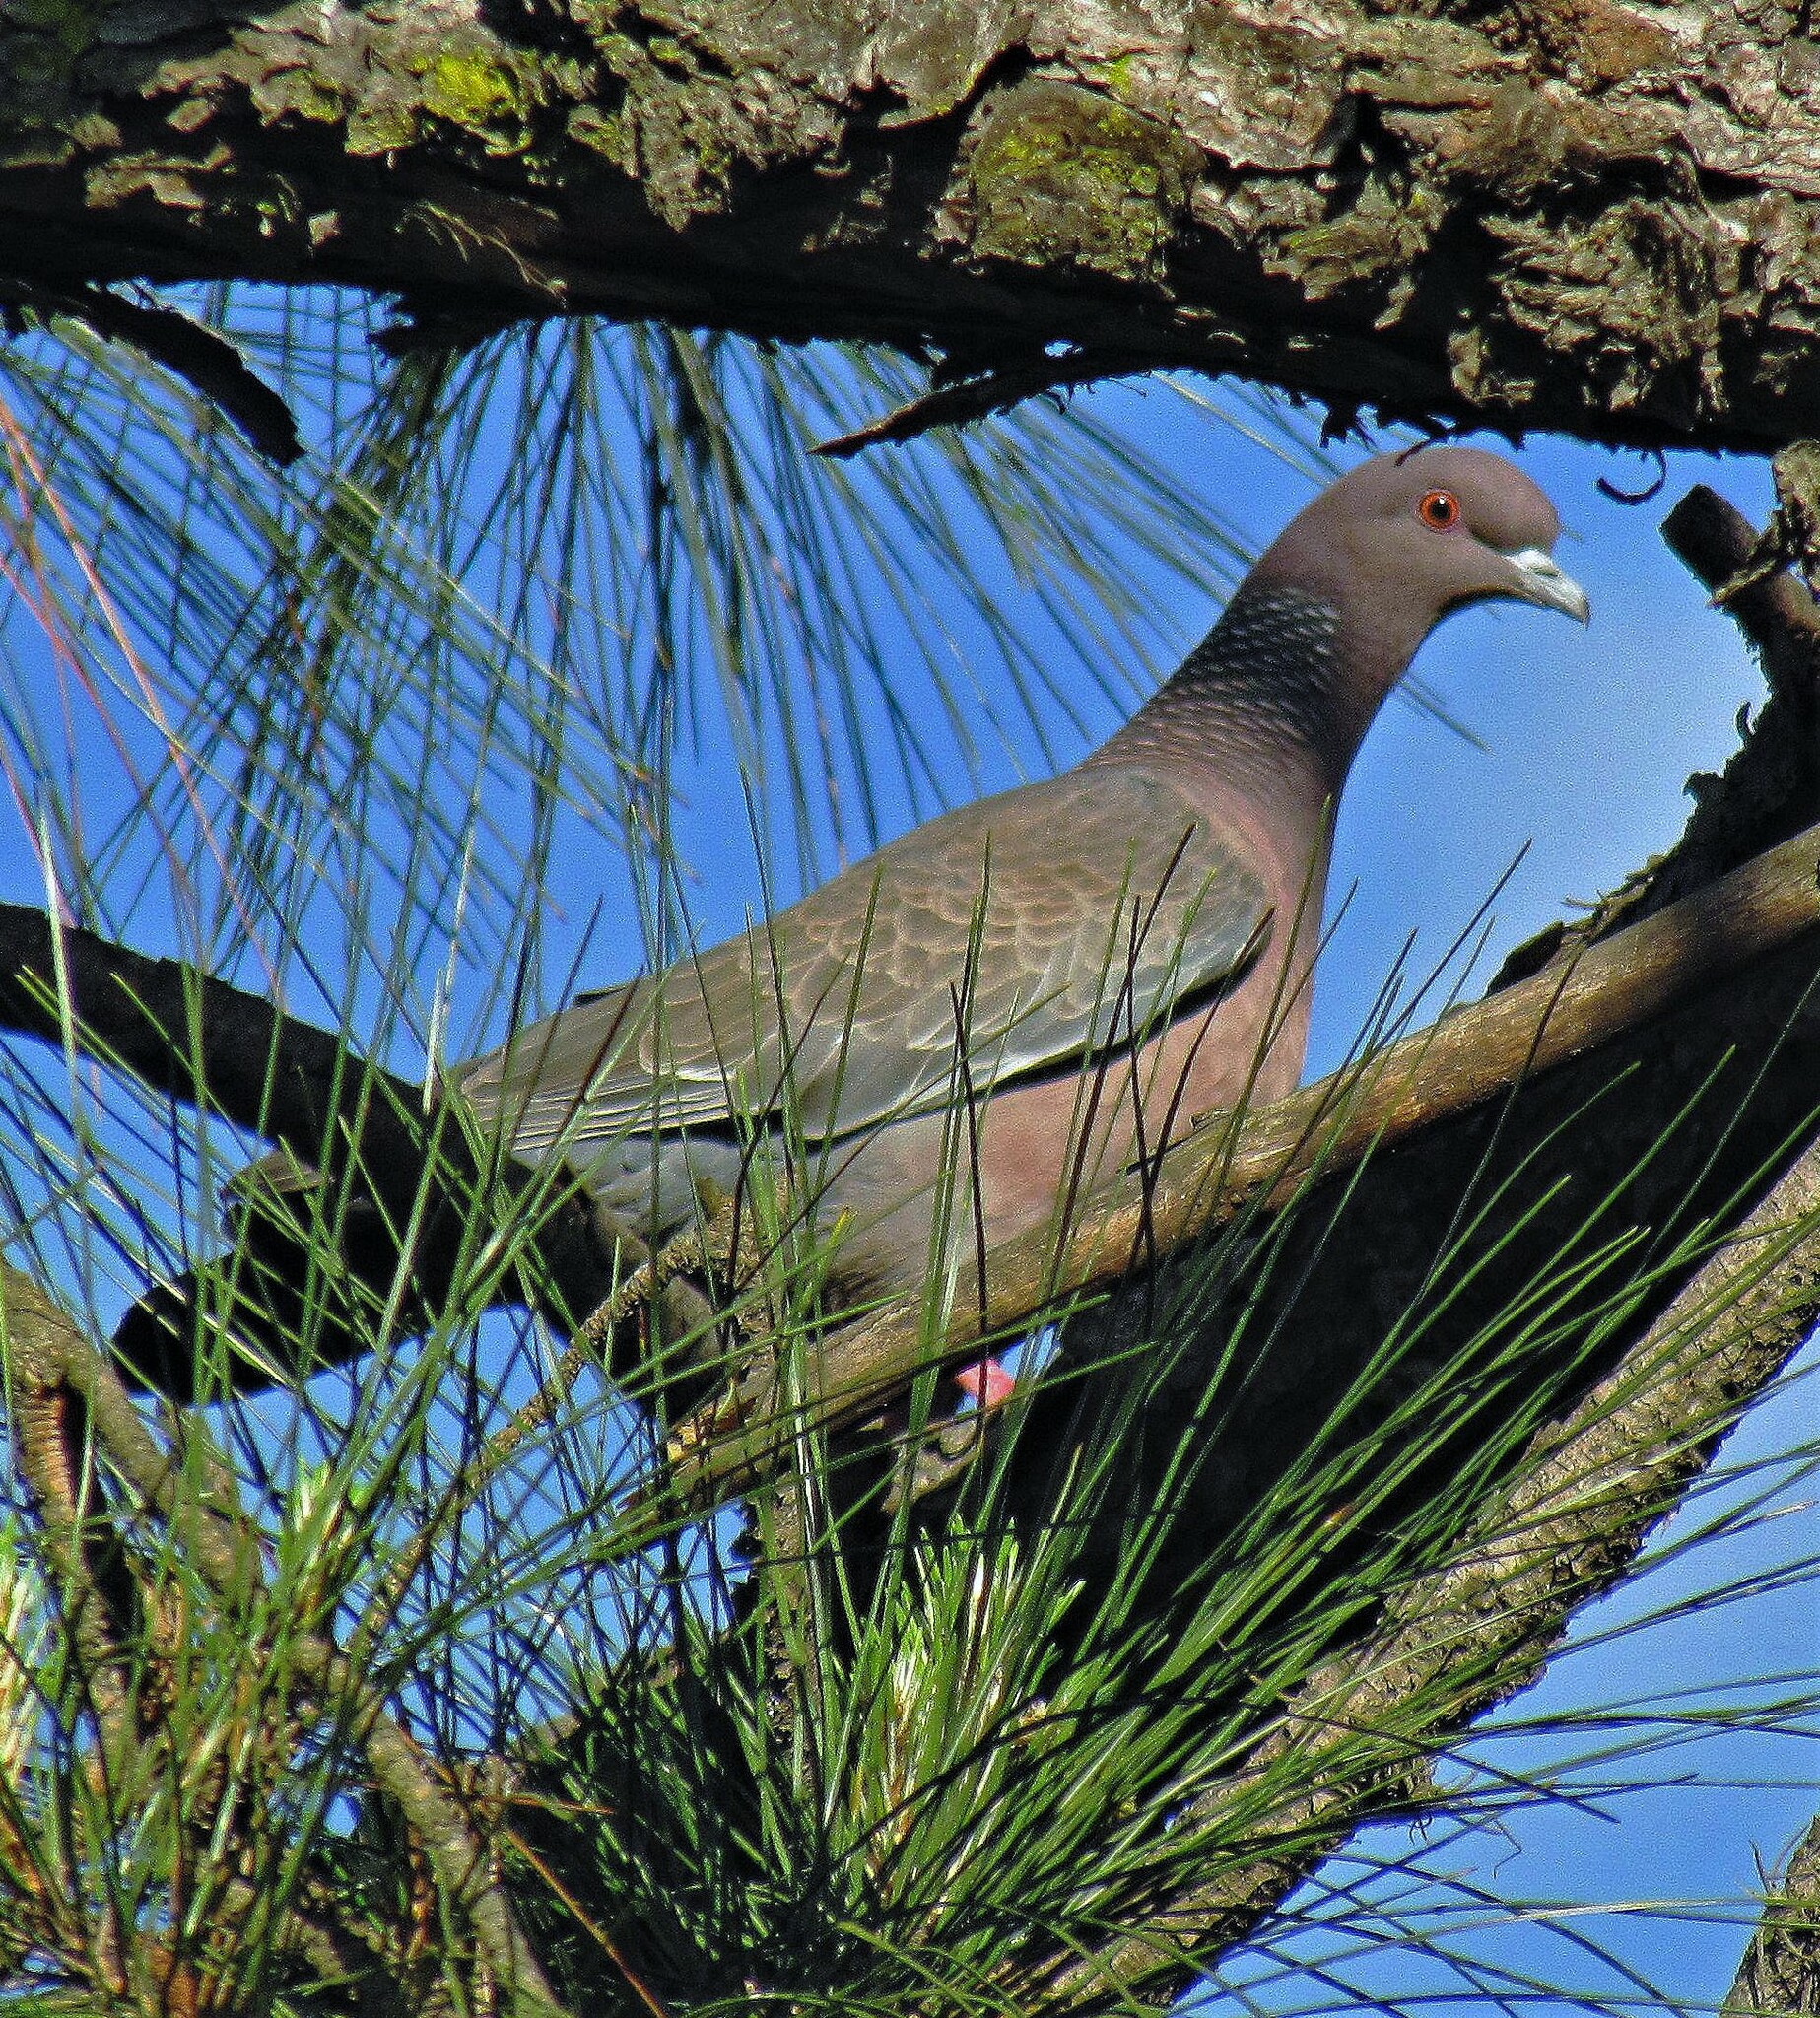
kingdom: Animalia
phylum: Chordata
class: Aves
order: Columbiformes
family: Columbidae
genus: Patagioenas
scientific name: Patagioenas picazuro
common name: Picazuro pigeon
